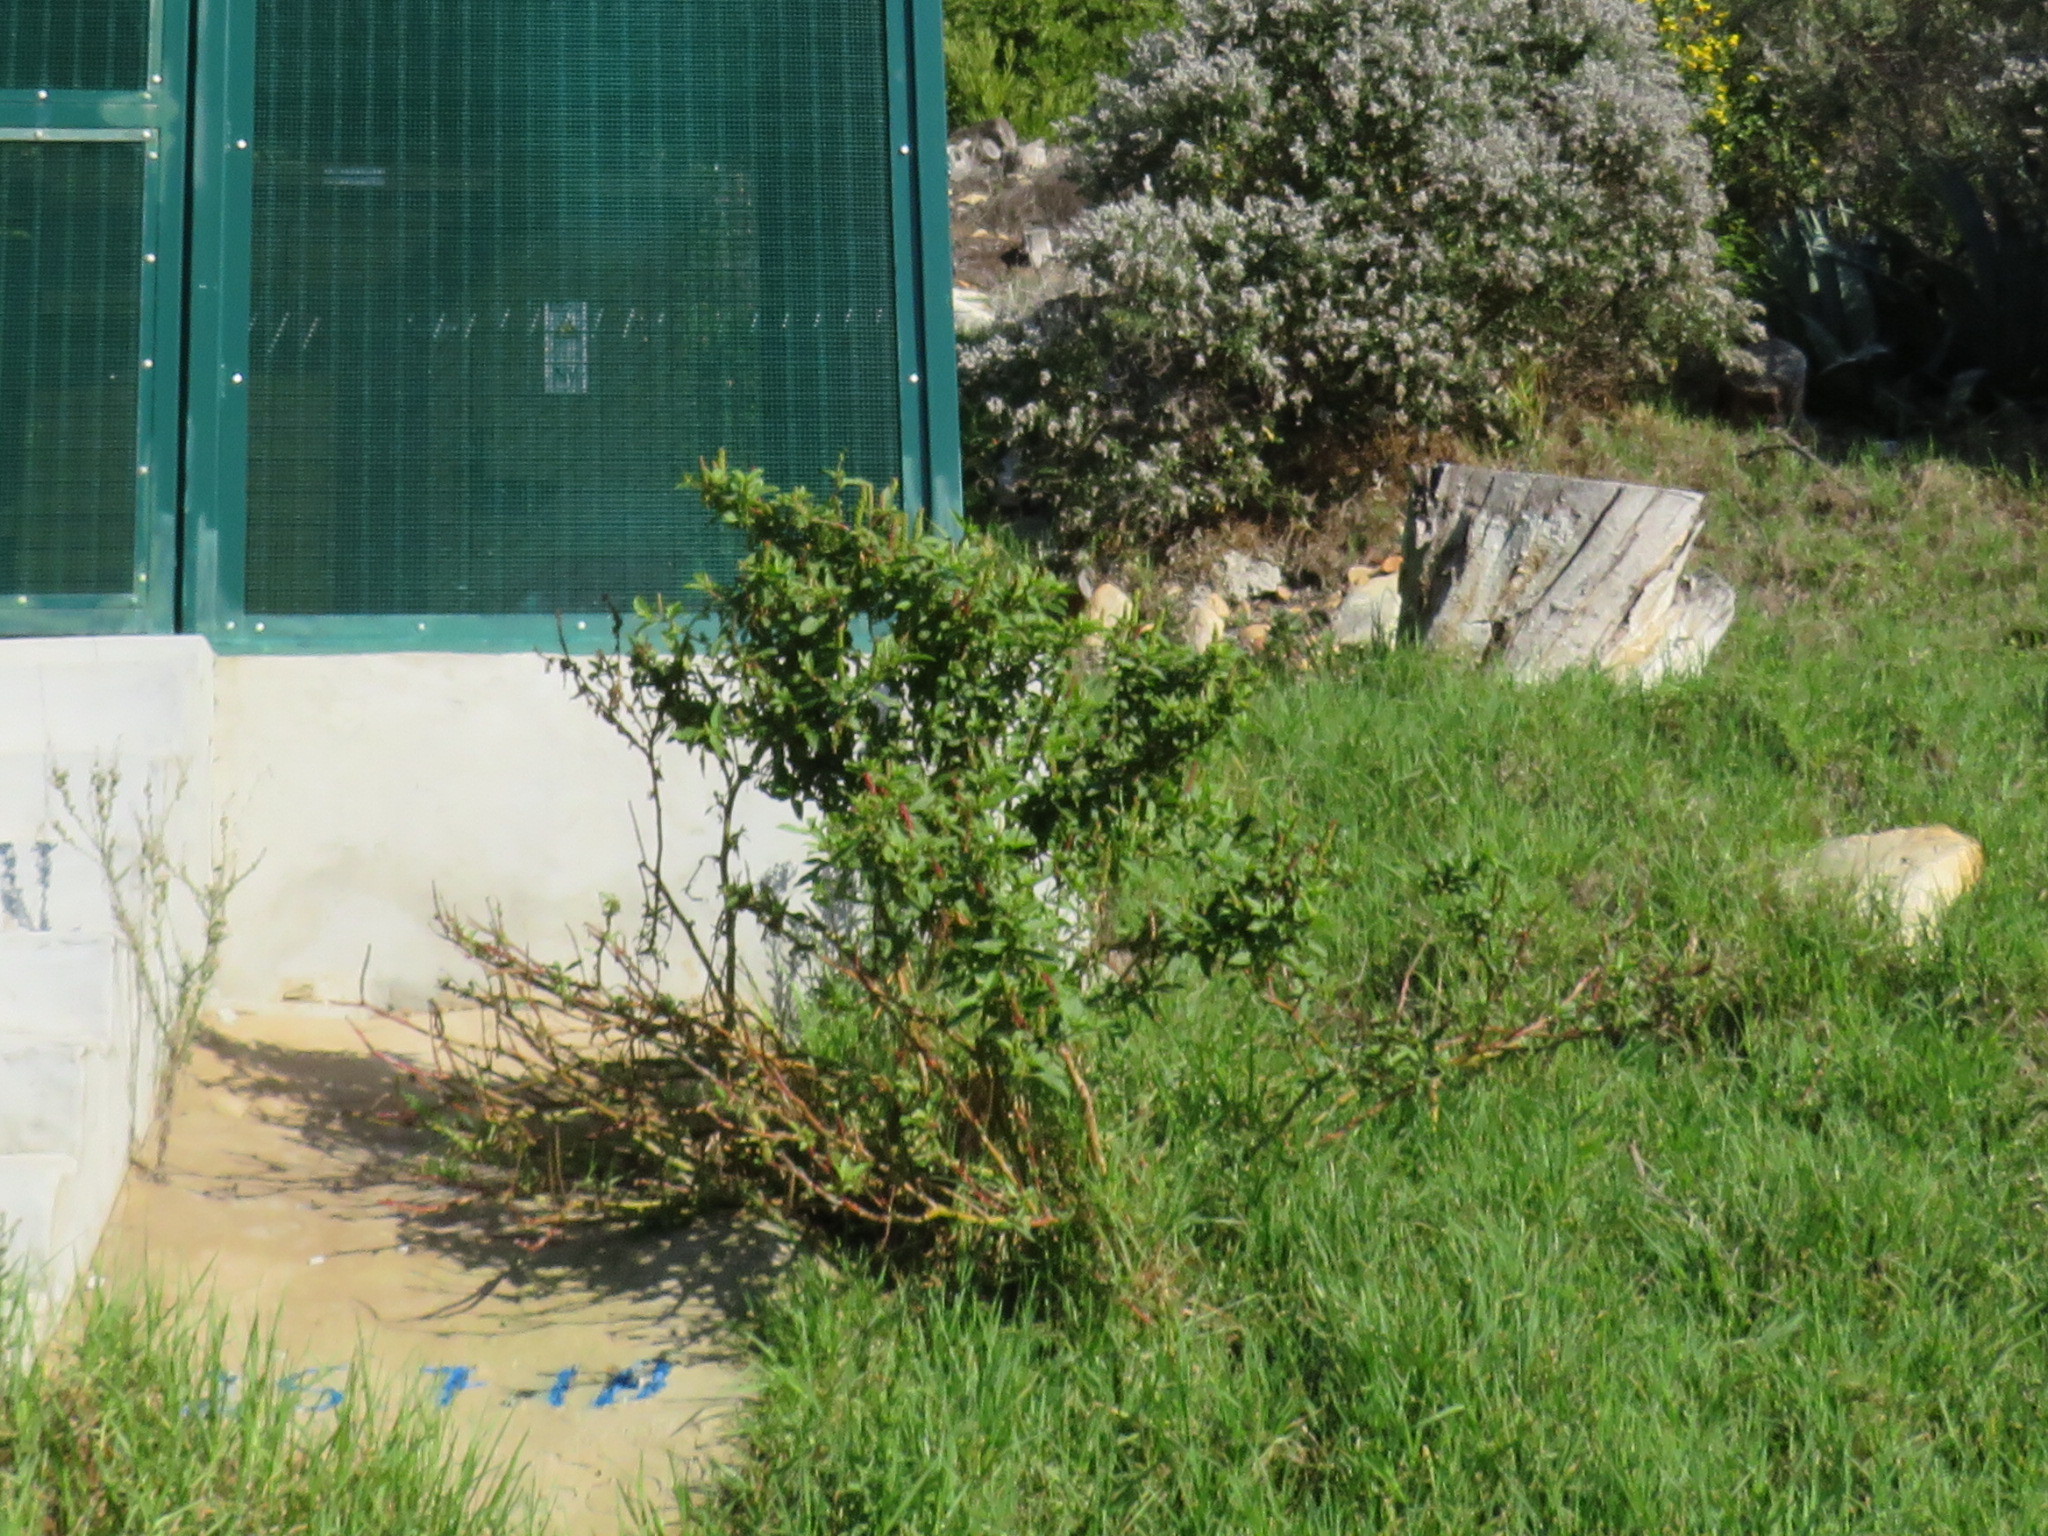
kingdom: Plantae
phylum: Tracheophyta
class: Magnoliopsida
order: Caryophyllales
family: Phytolaccaceae
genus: Phytolacca
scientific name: Phytolacca icosandra
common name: Button pokeweed
